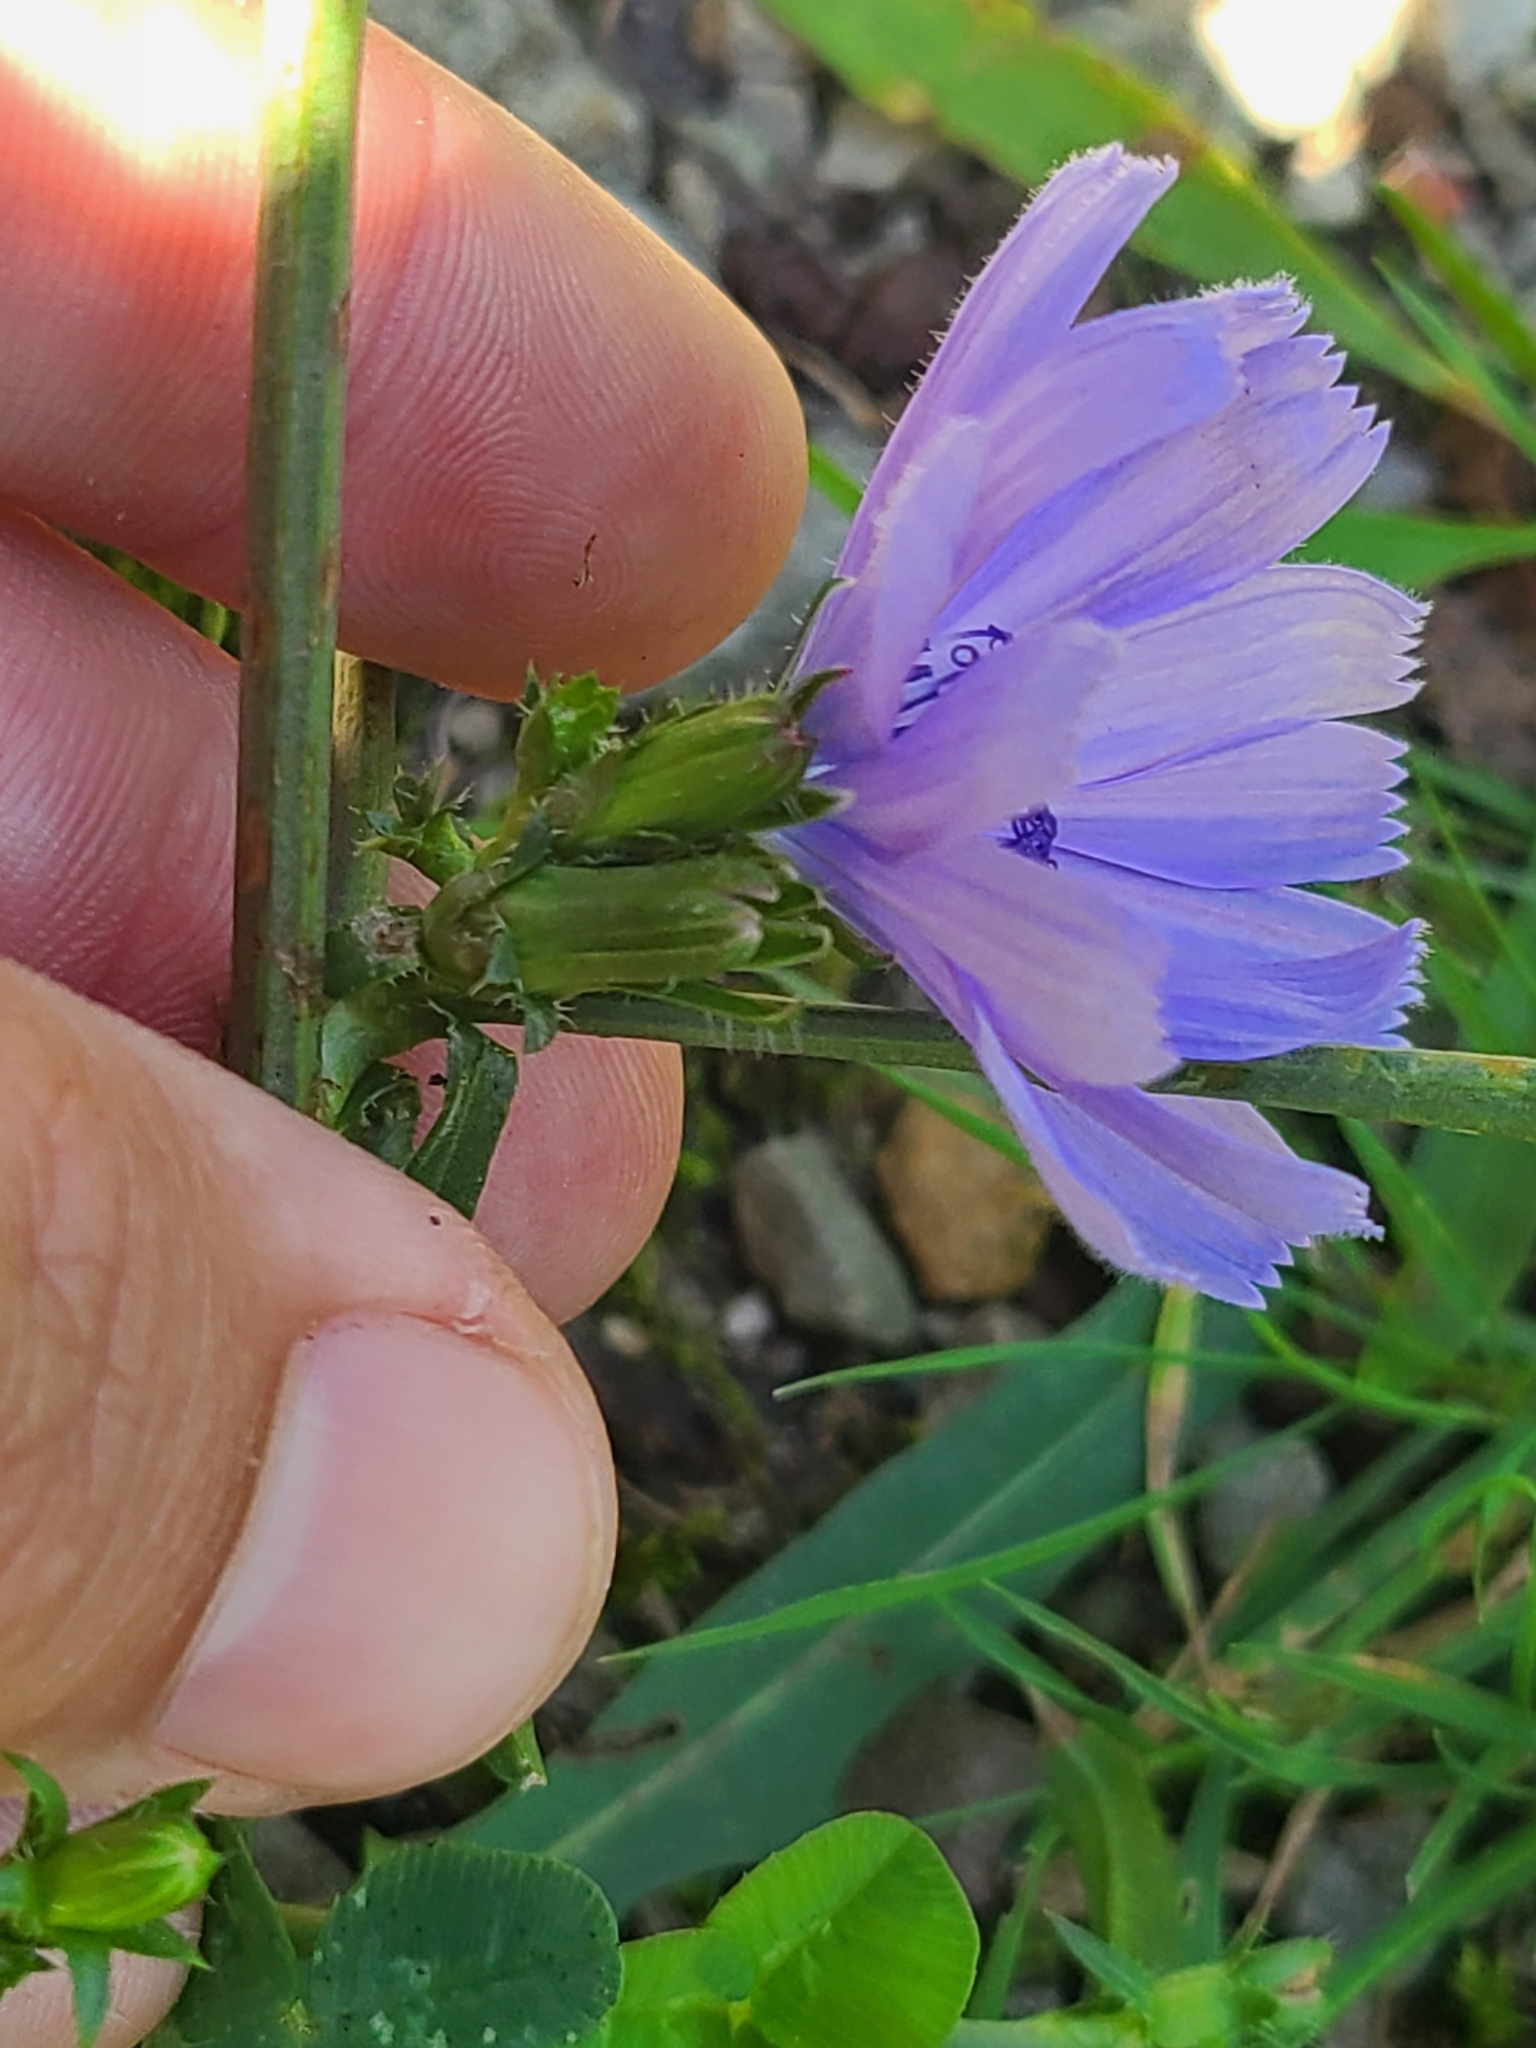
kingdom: Plantae
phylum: Tracheophyta
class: Magnoliopsida
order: Asterales
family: Asteraceae
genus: Cichorium
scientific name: Cichorium intybus
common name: Chicory
